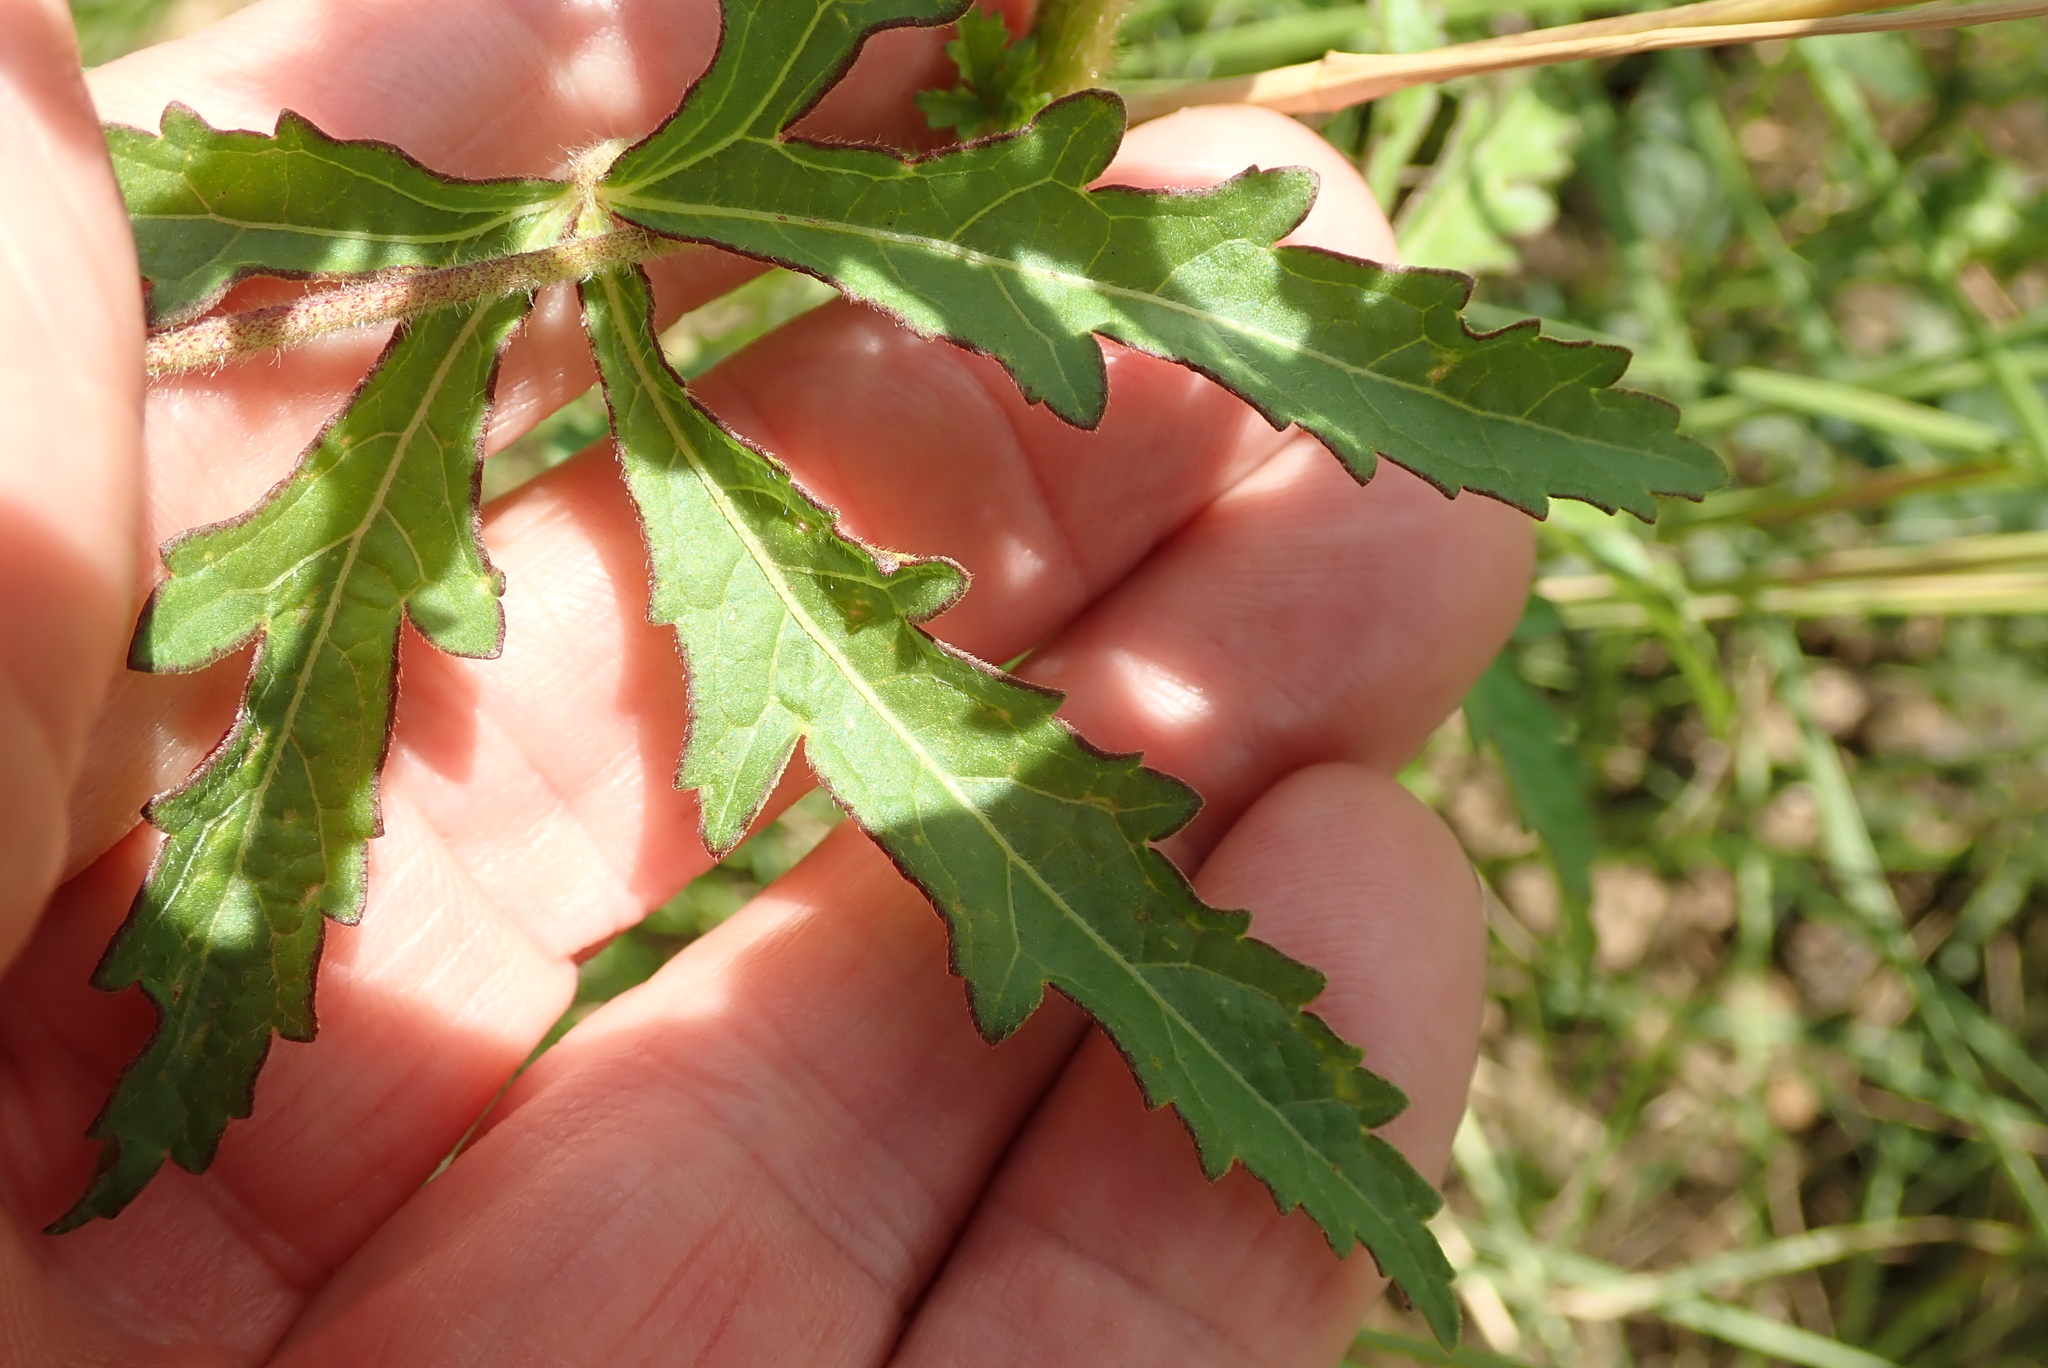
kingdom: Plantae
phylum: Tracheophyta
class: Magnoliopsida
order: Malvales
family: Malvaceae
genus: Hibiscus
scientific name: Hibiscus trionum
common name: Bladder ketmia
